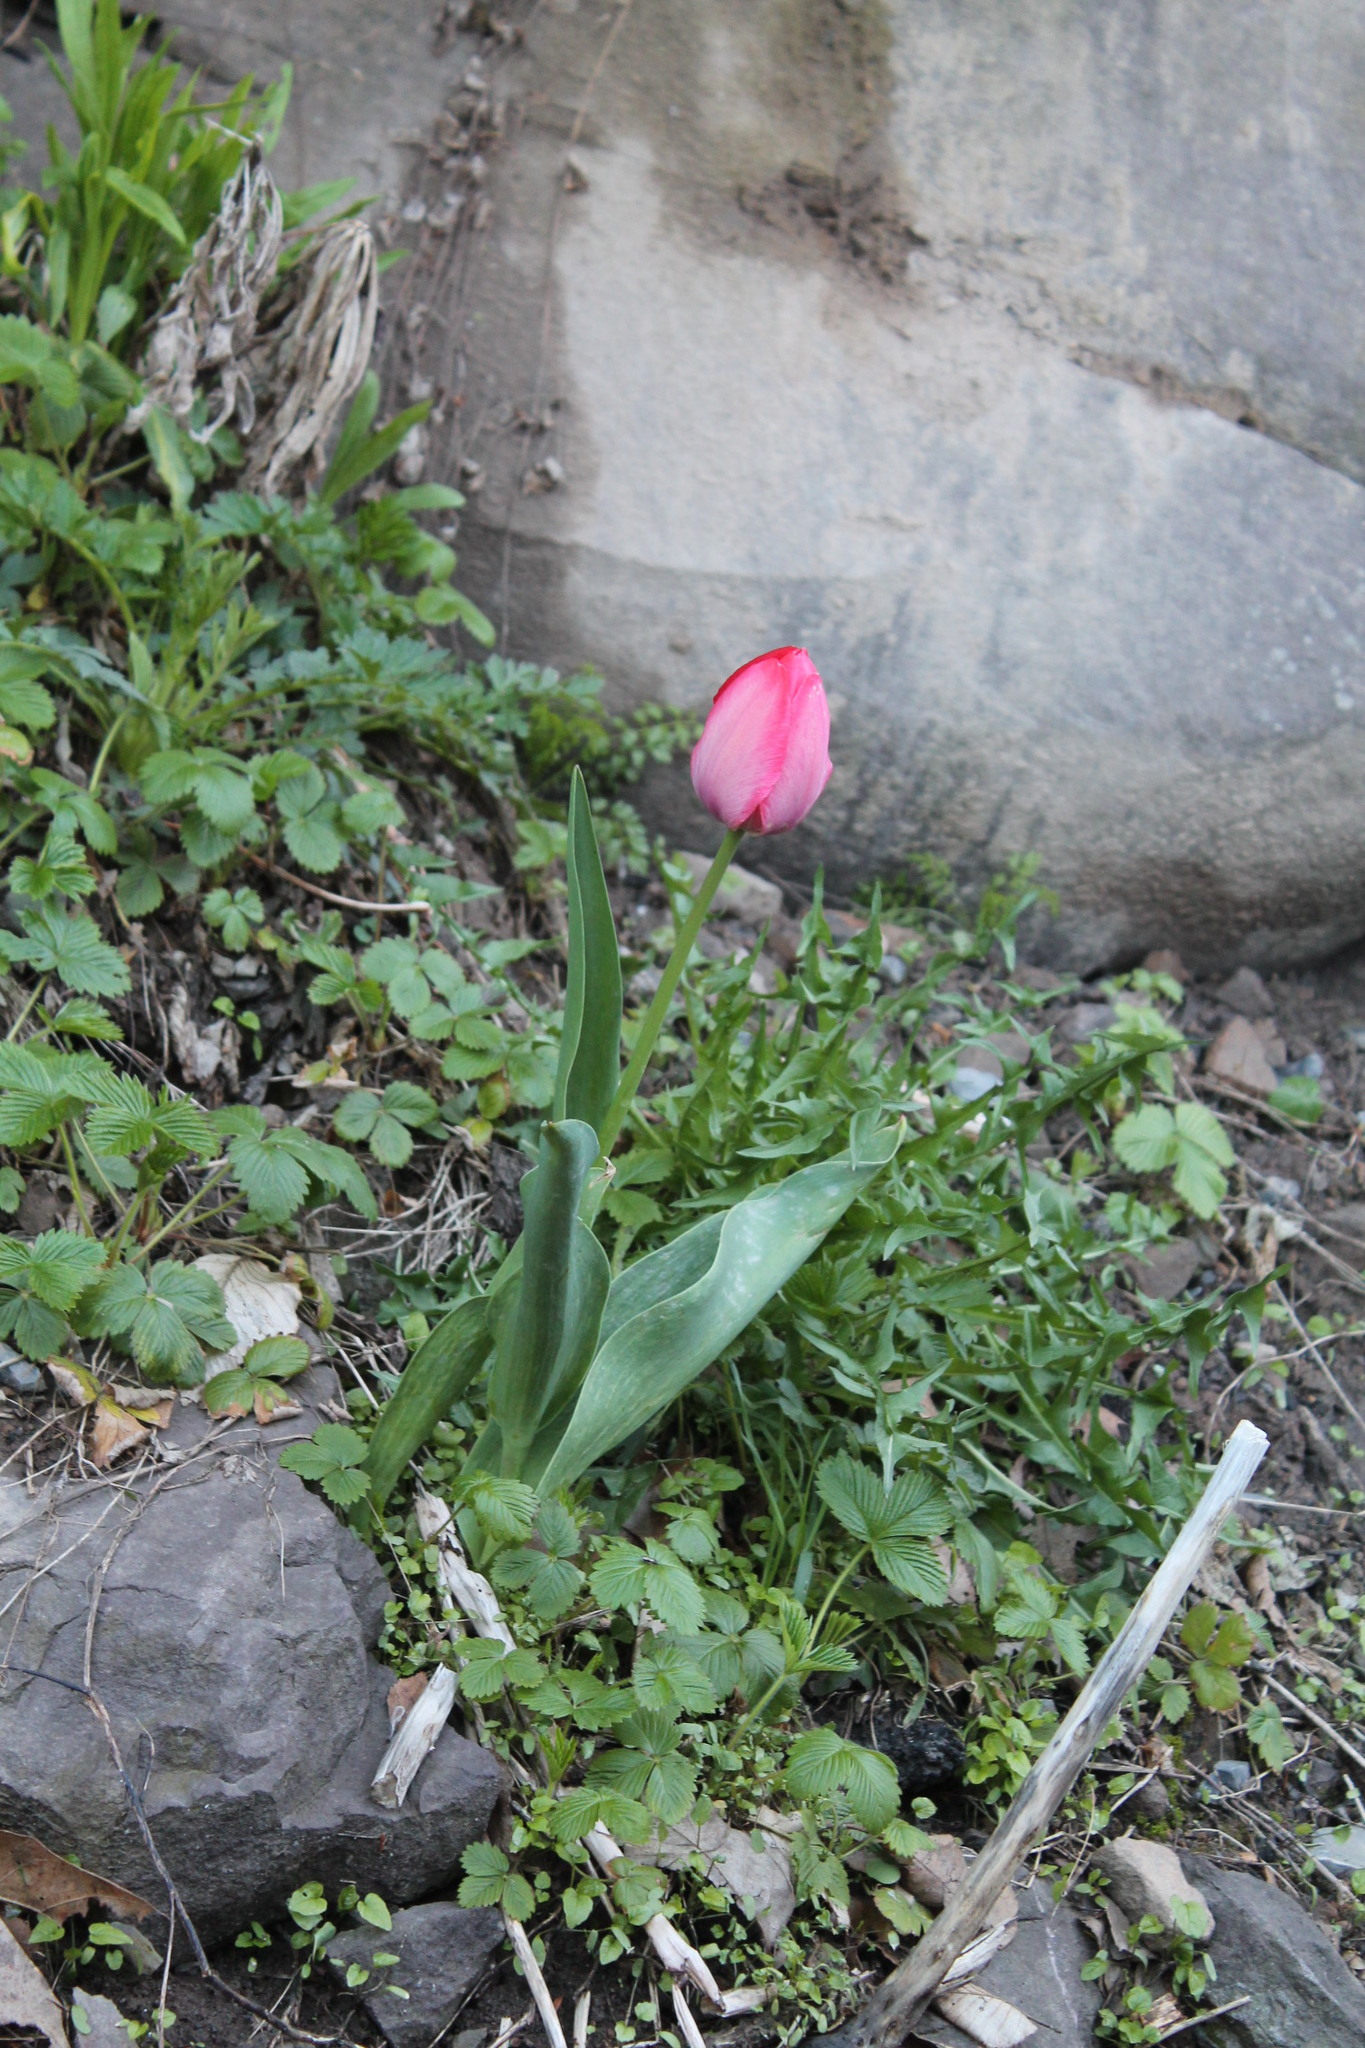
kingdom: Plantae
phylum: Tracheophyta
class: Liliopsida
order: Liliales
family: Liliaceae
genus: Tulipa
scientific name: Tulipa gesneriana
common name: Garden tulip
